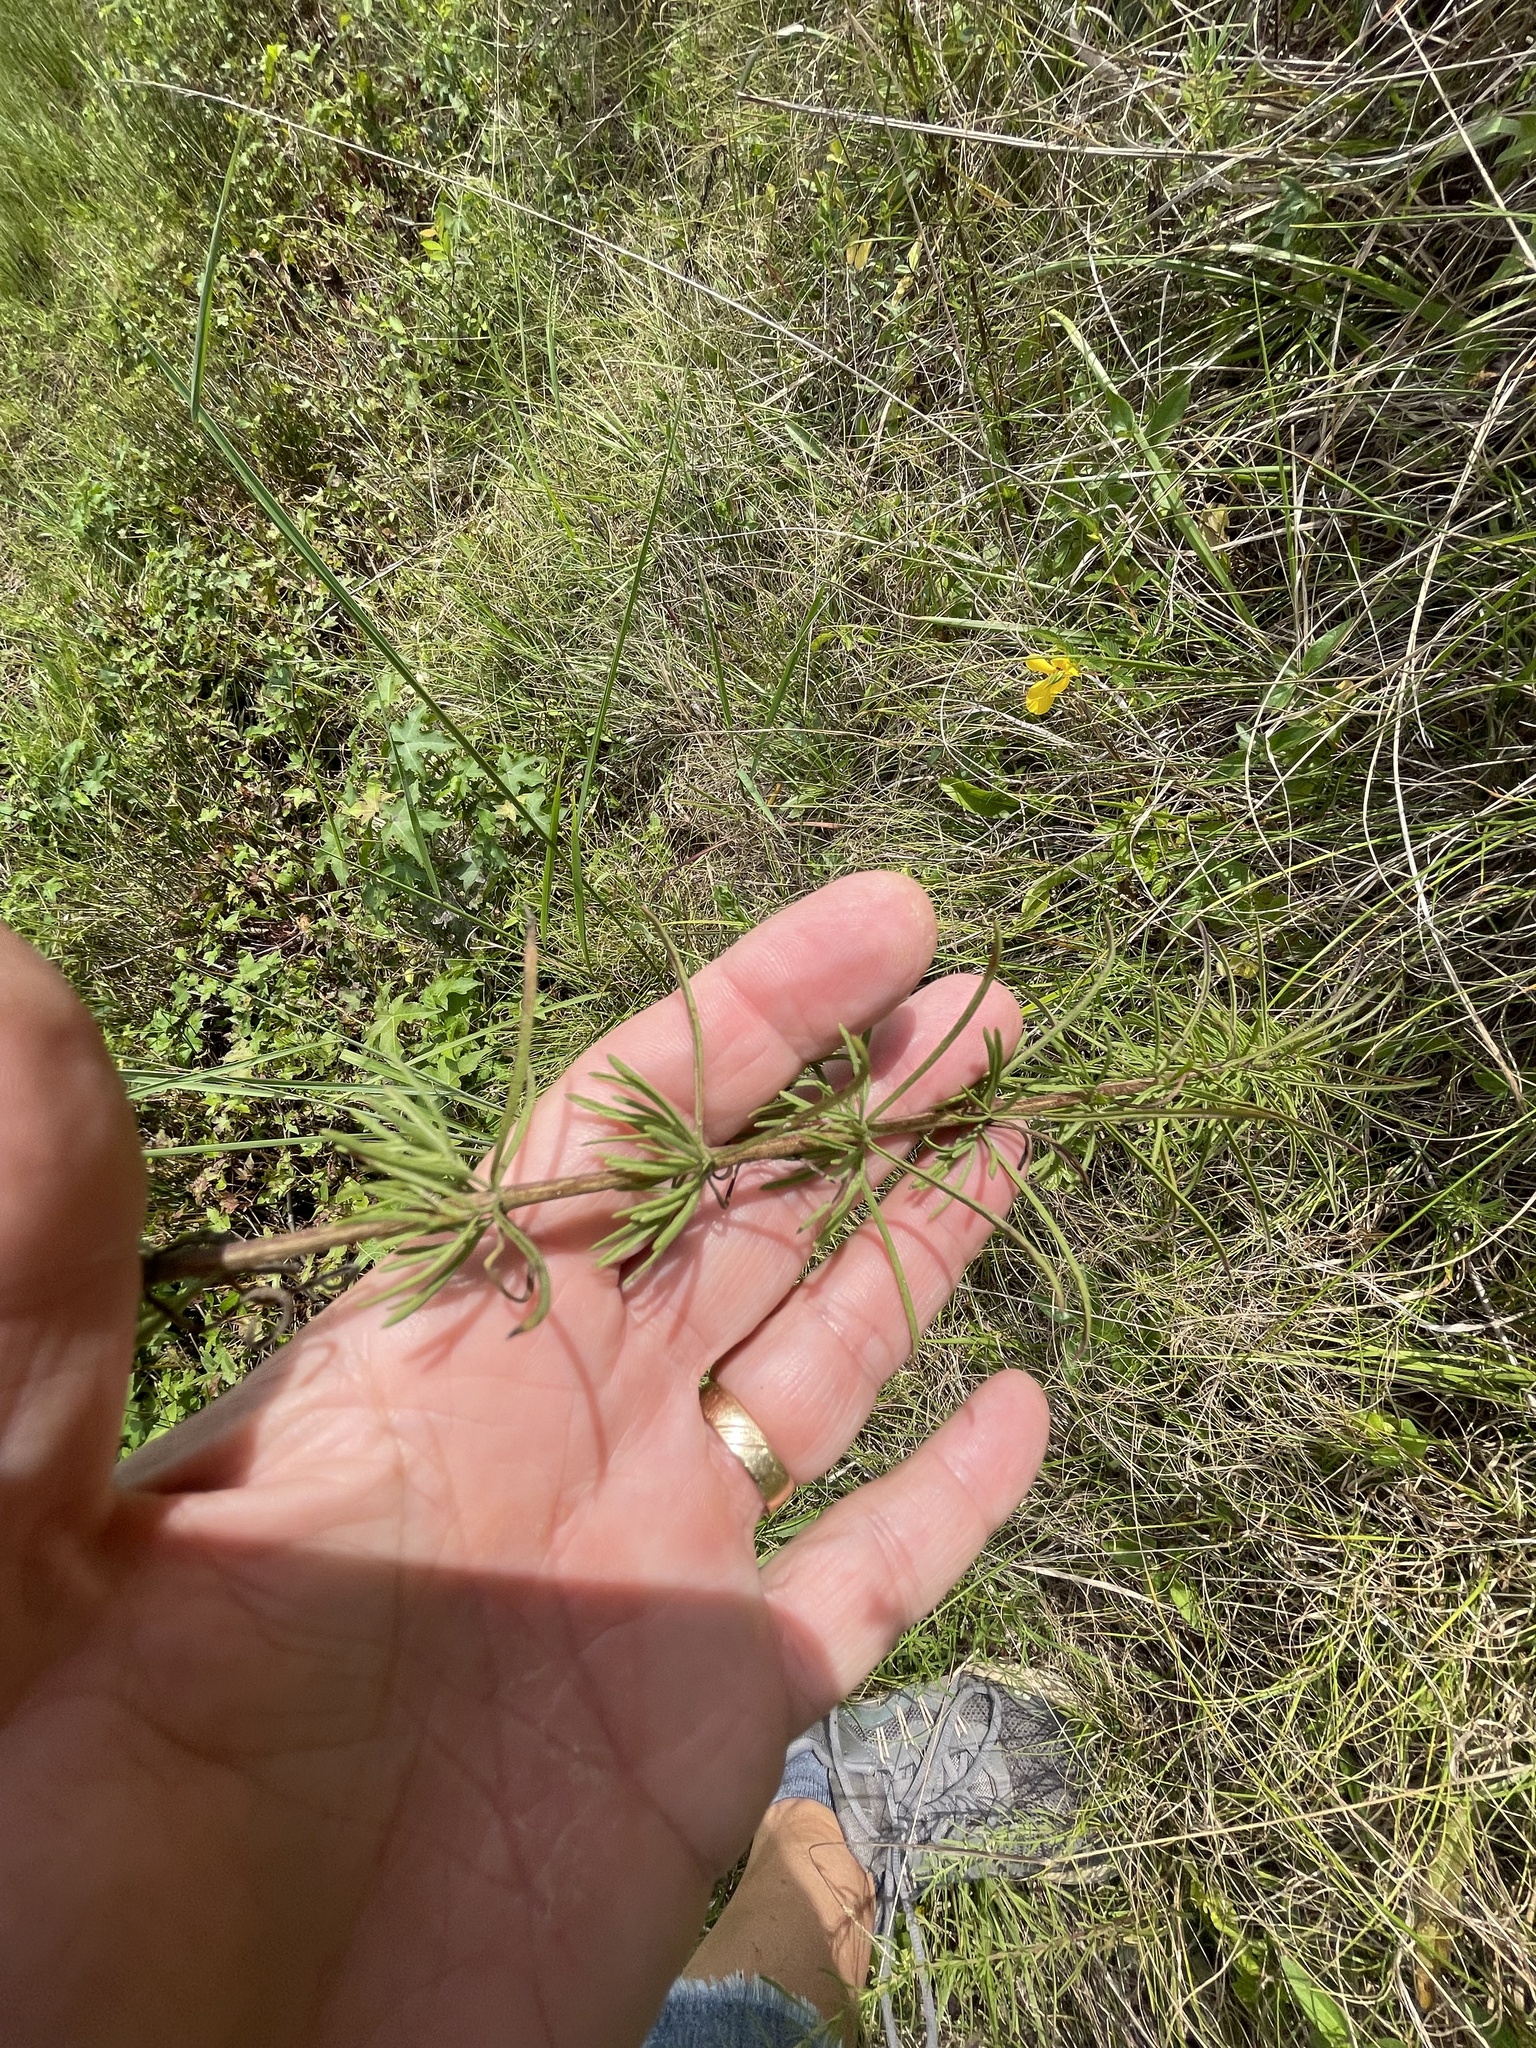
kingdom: Plantae
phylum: Tracheophyta
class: Magnoliopsida
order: Asterales
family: Asteraceae
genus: Eupatorium
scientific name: Eupatorium hyssopifolium
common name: Hyssop-leaf thoroughwort
